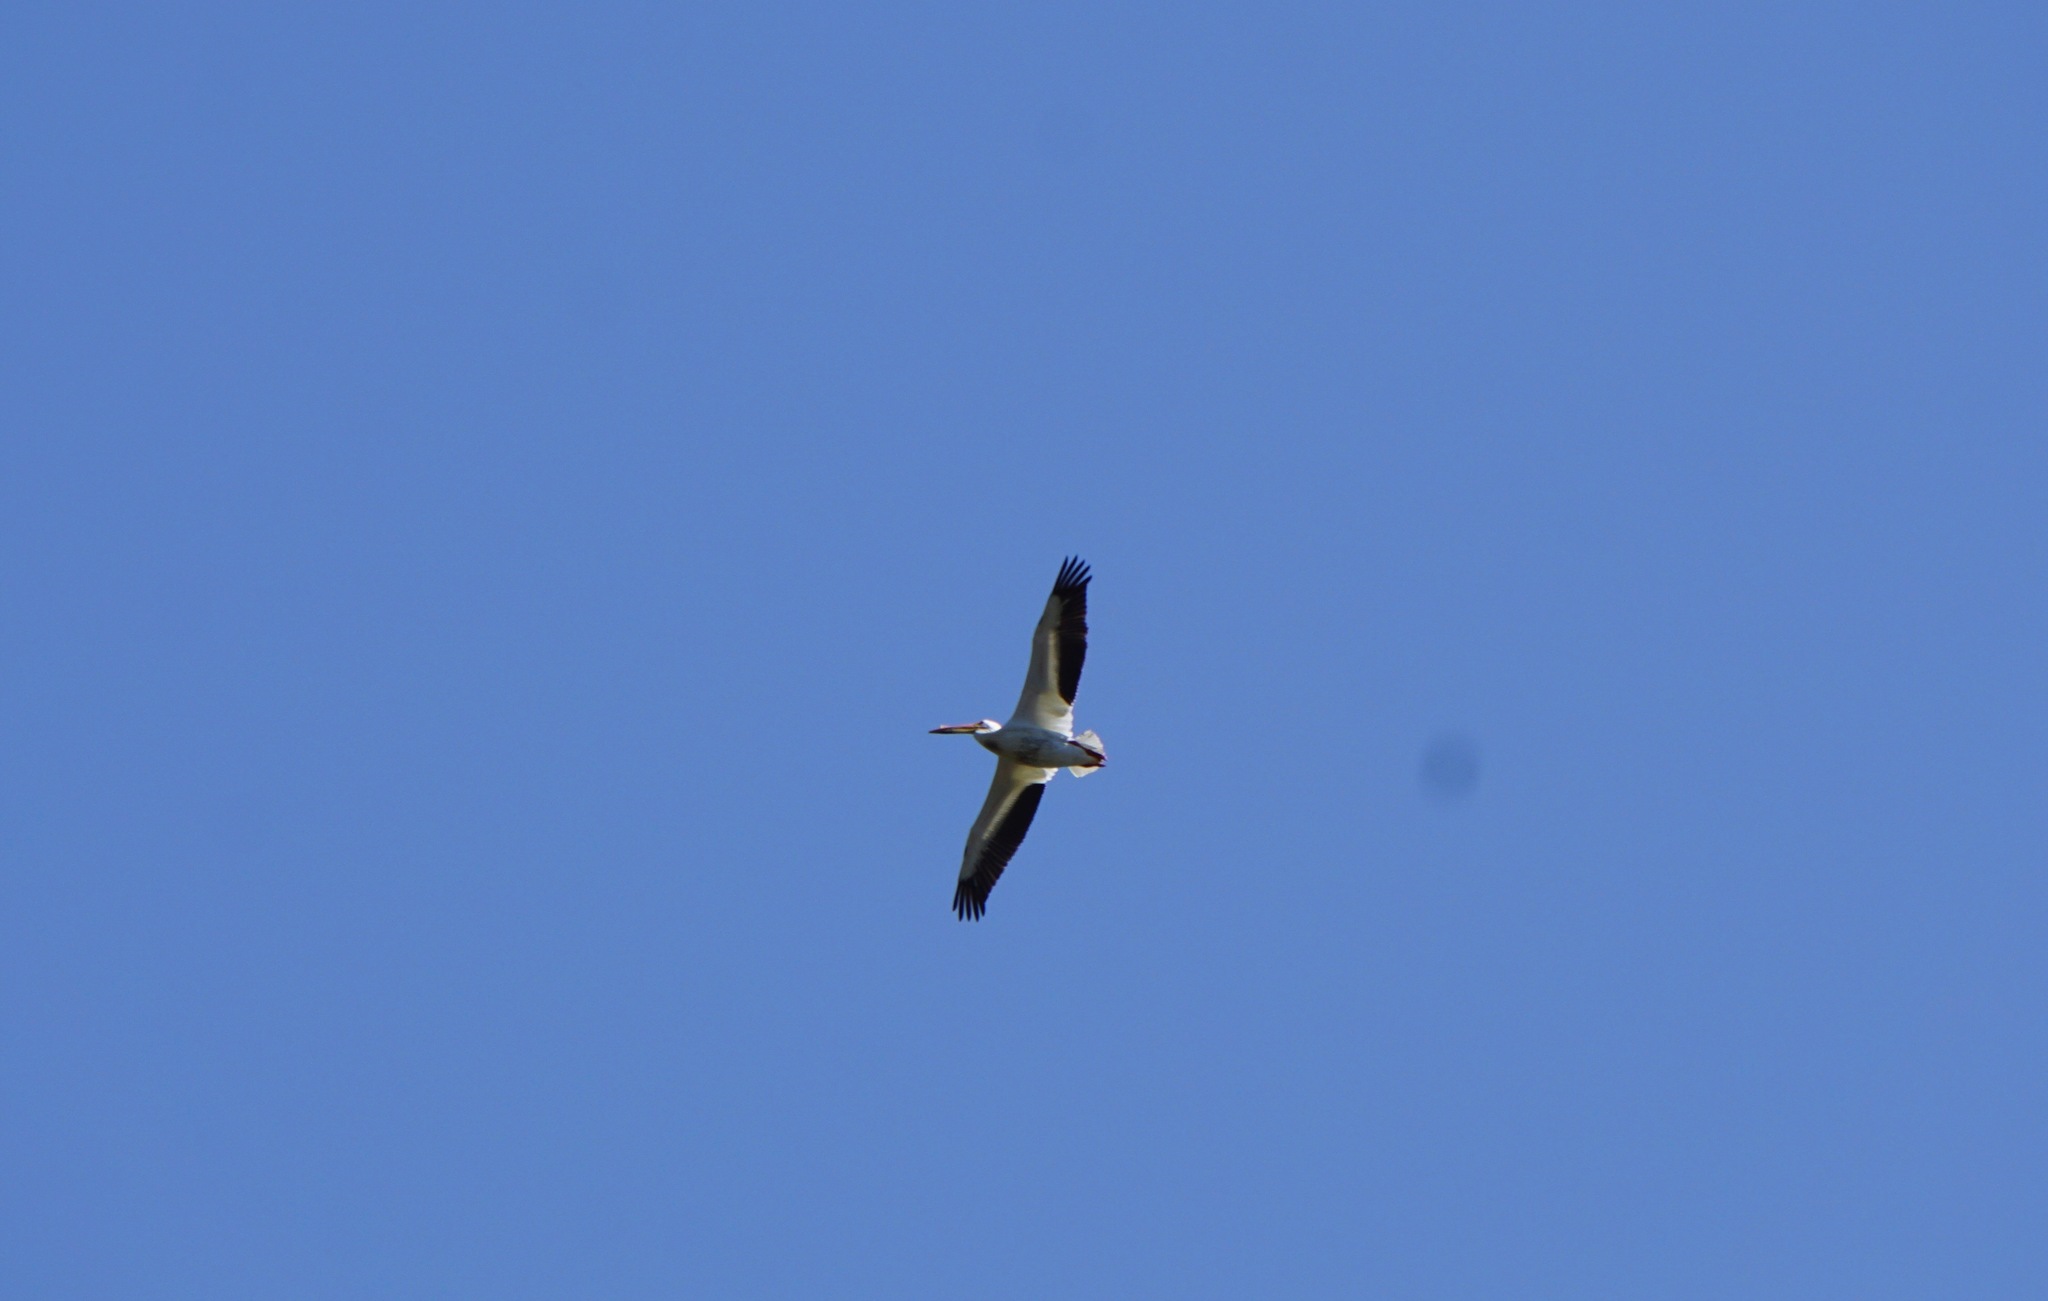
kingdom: Animalia
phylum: Chordata
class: Aves
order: Pelecaniformes
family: Pelecanidae
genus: Pelecanus
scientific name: Pelecanus erythrorhynchos
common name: American white pelican
